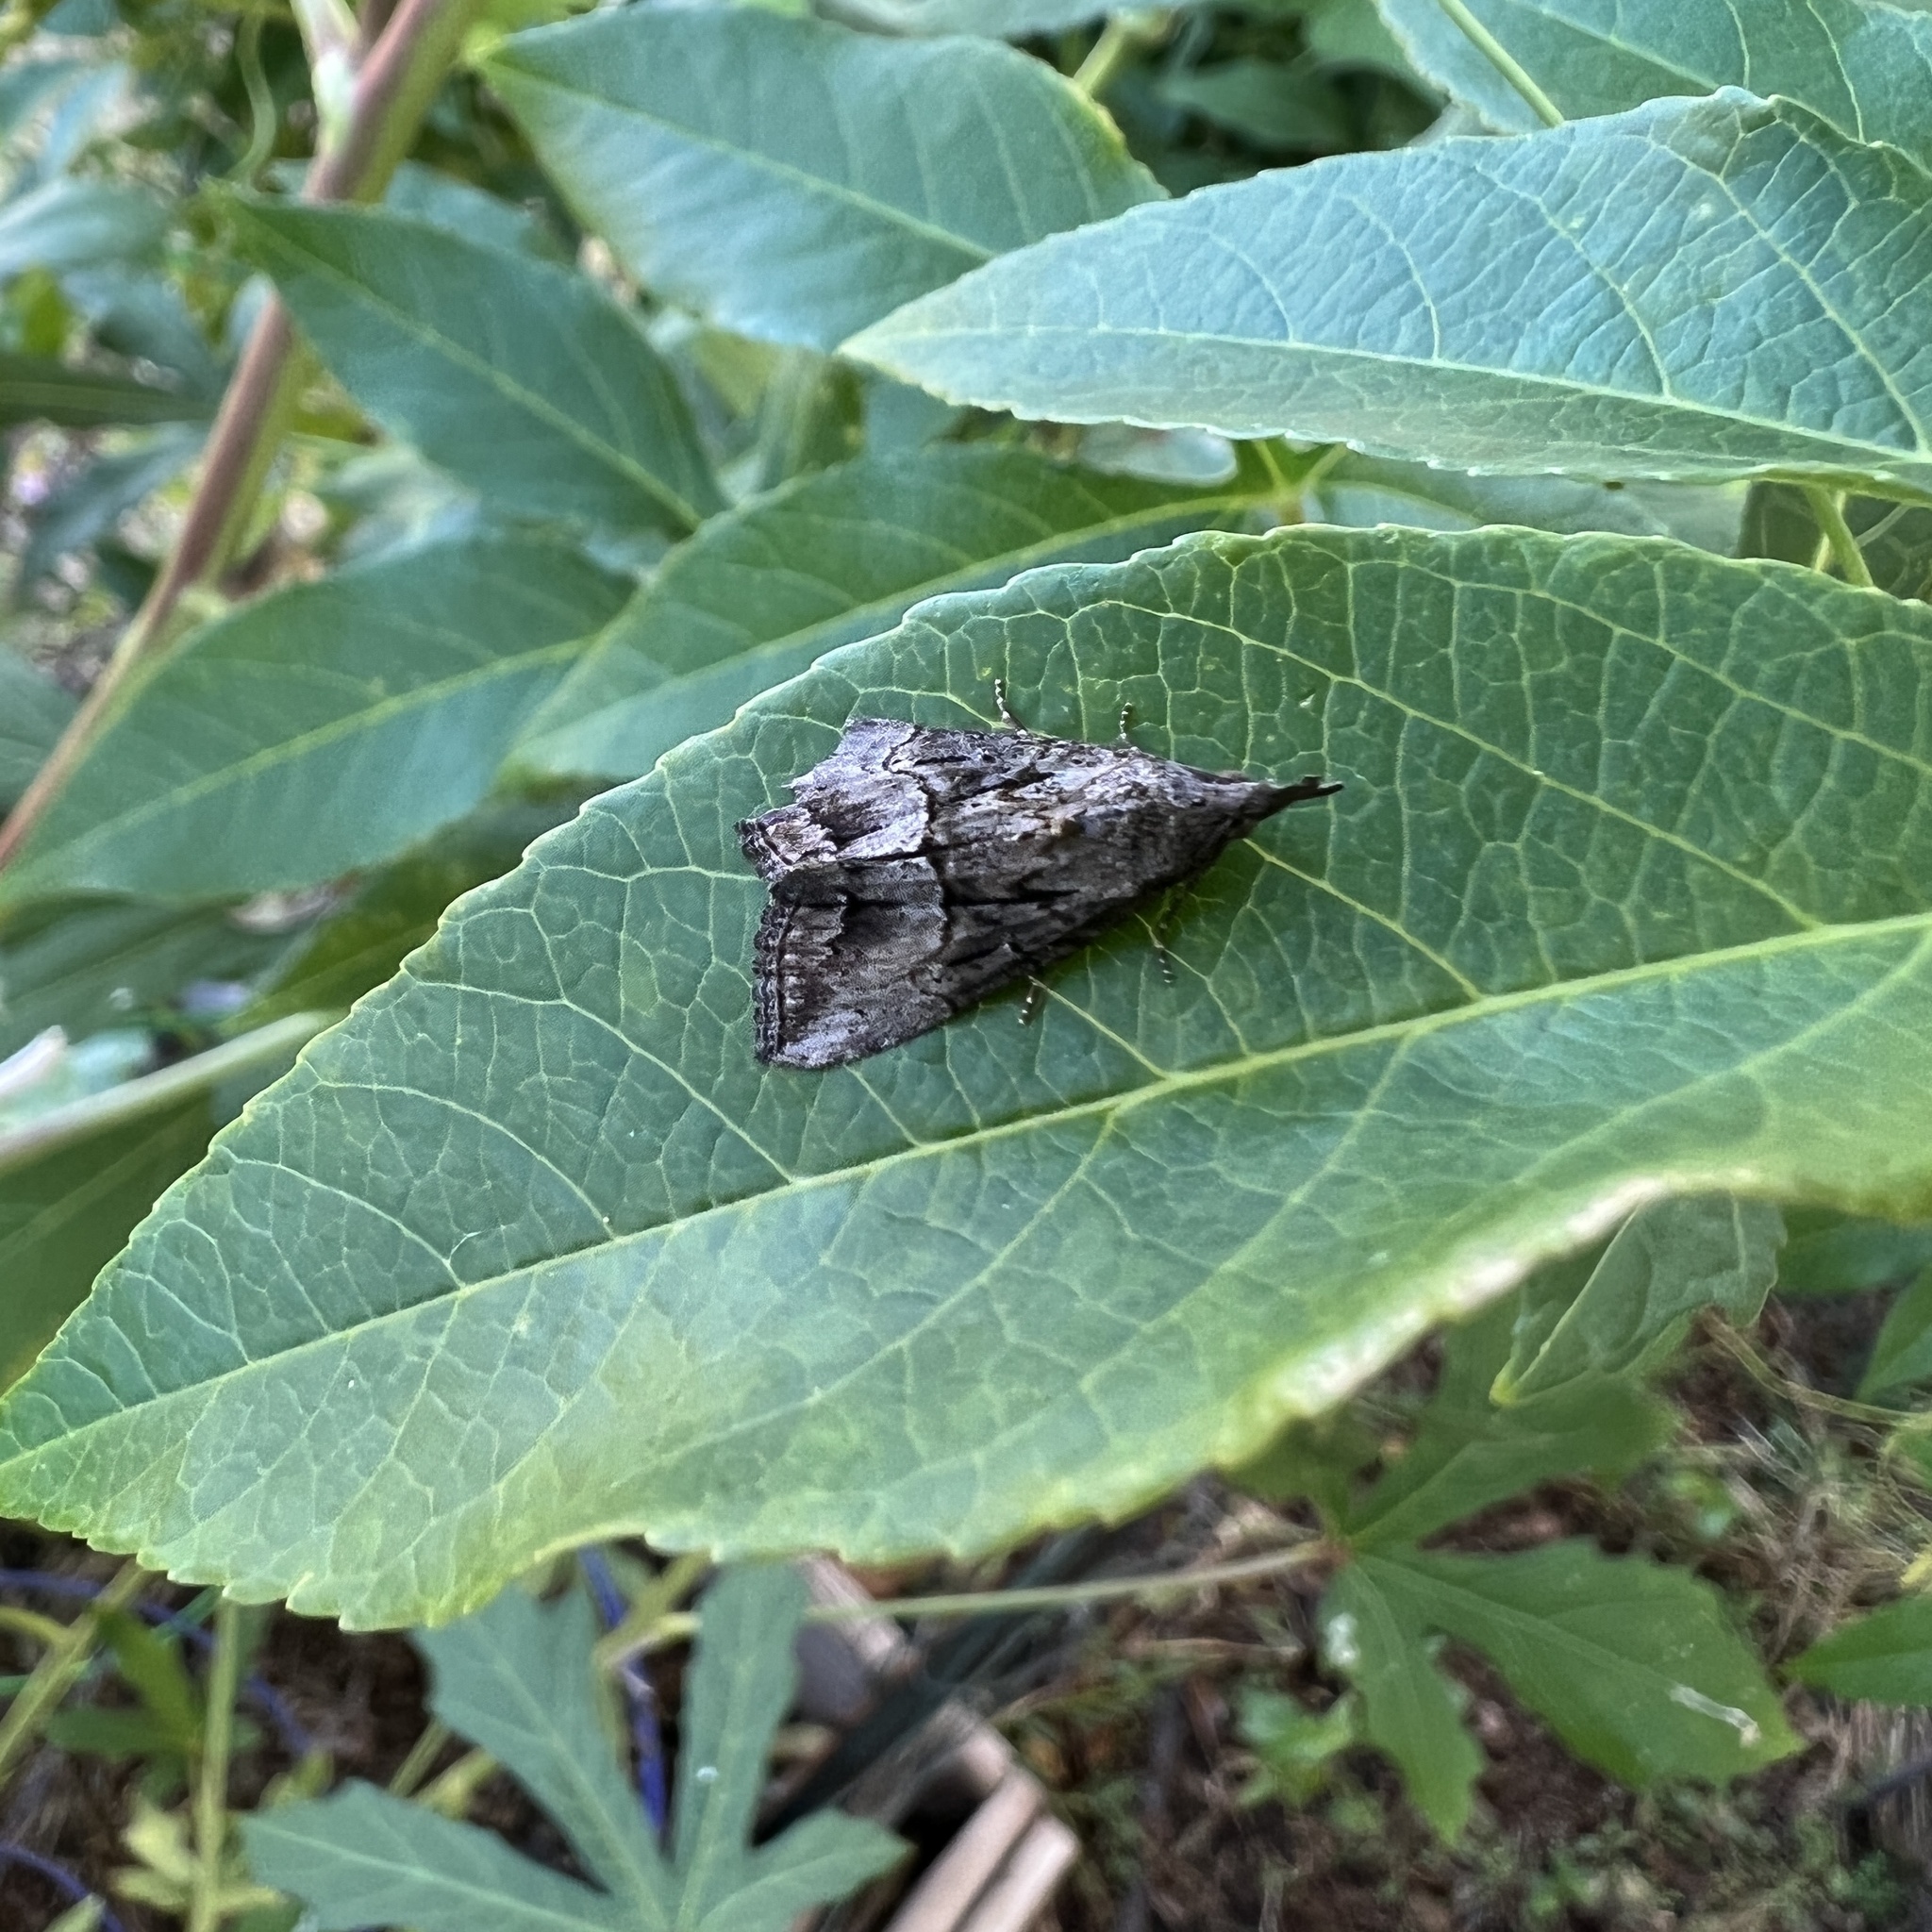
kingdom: Animalia
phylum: Arthropoda
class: Insecta
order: Lepidoptera
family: Erebidae
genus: Hypena
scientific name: Hypena scabra
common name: Green cloverworm
